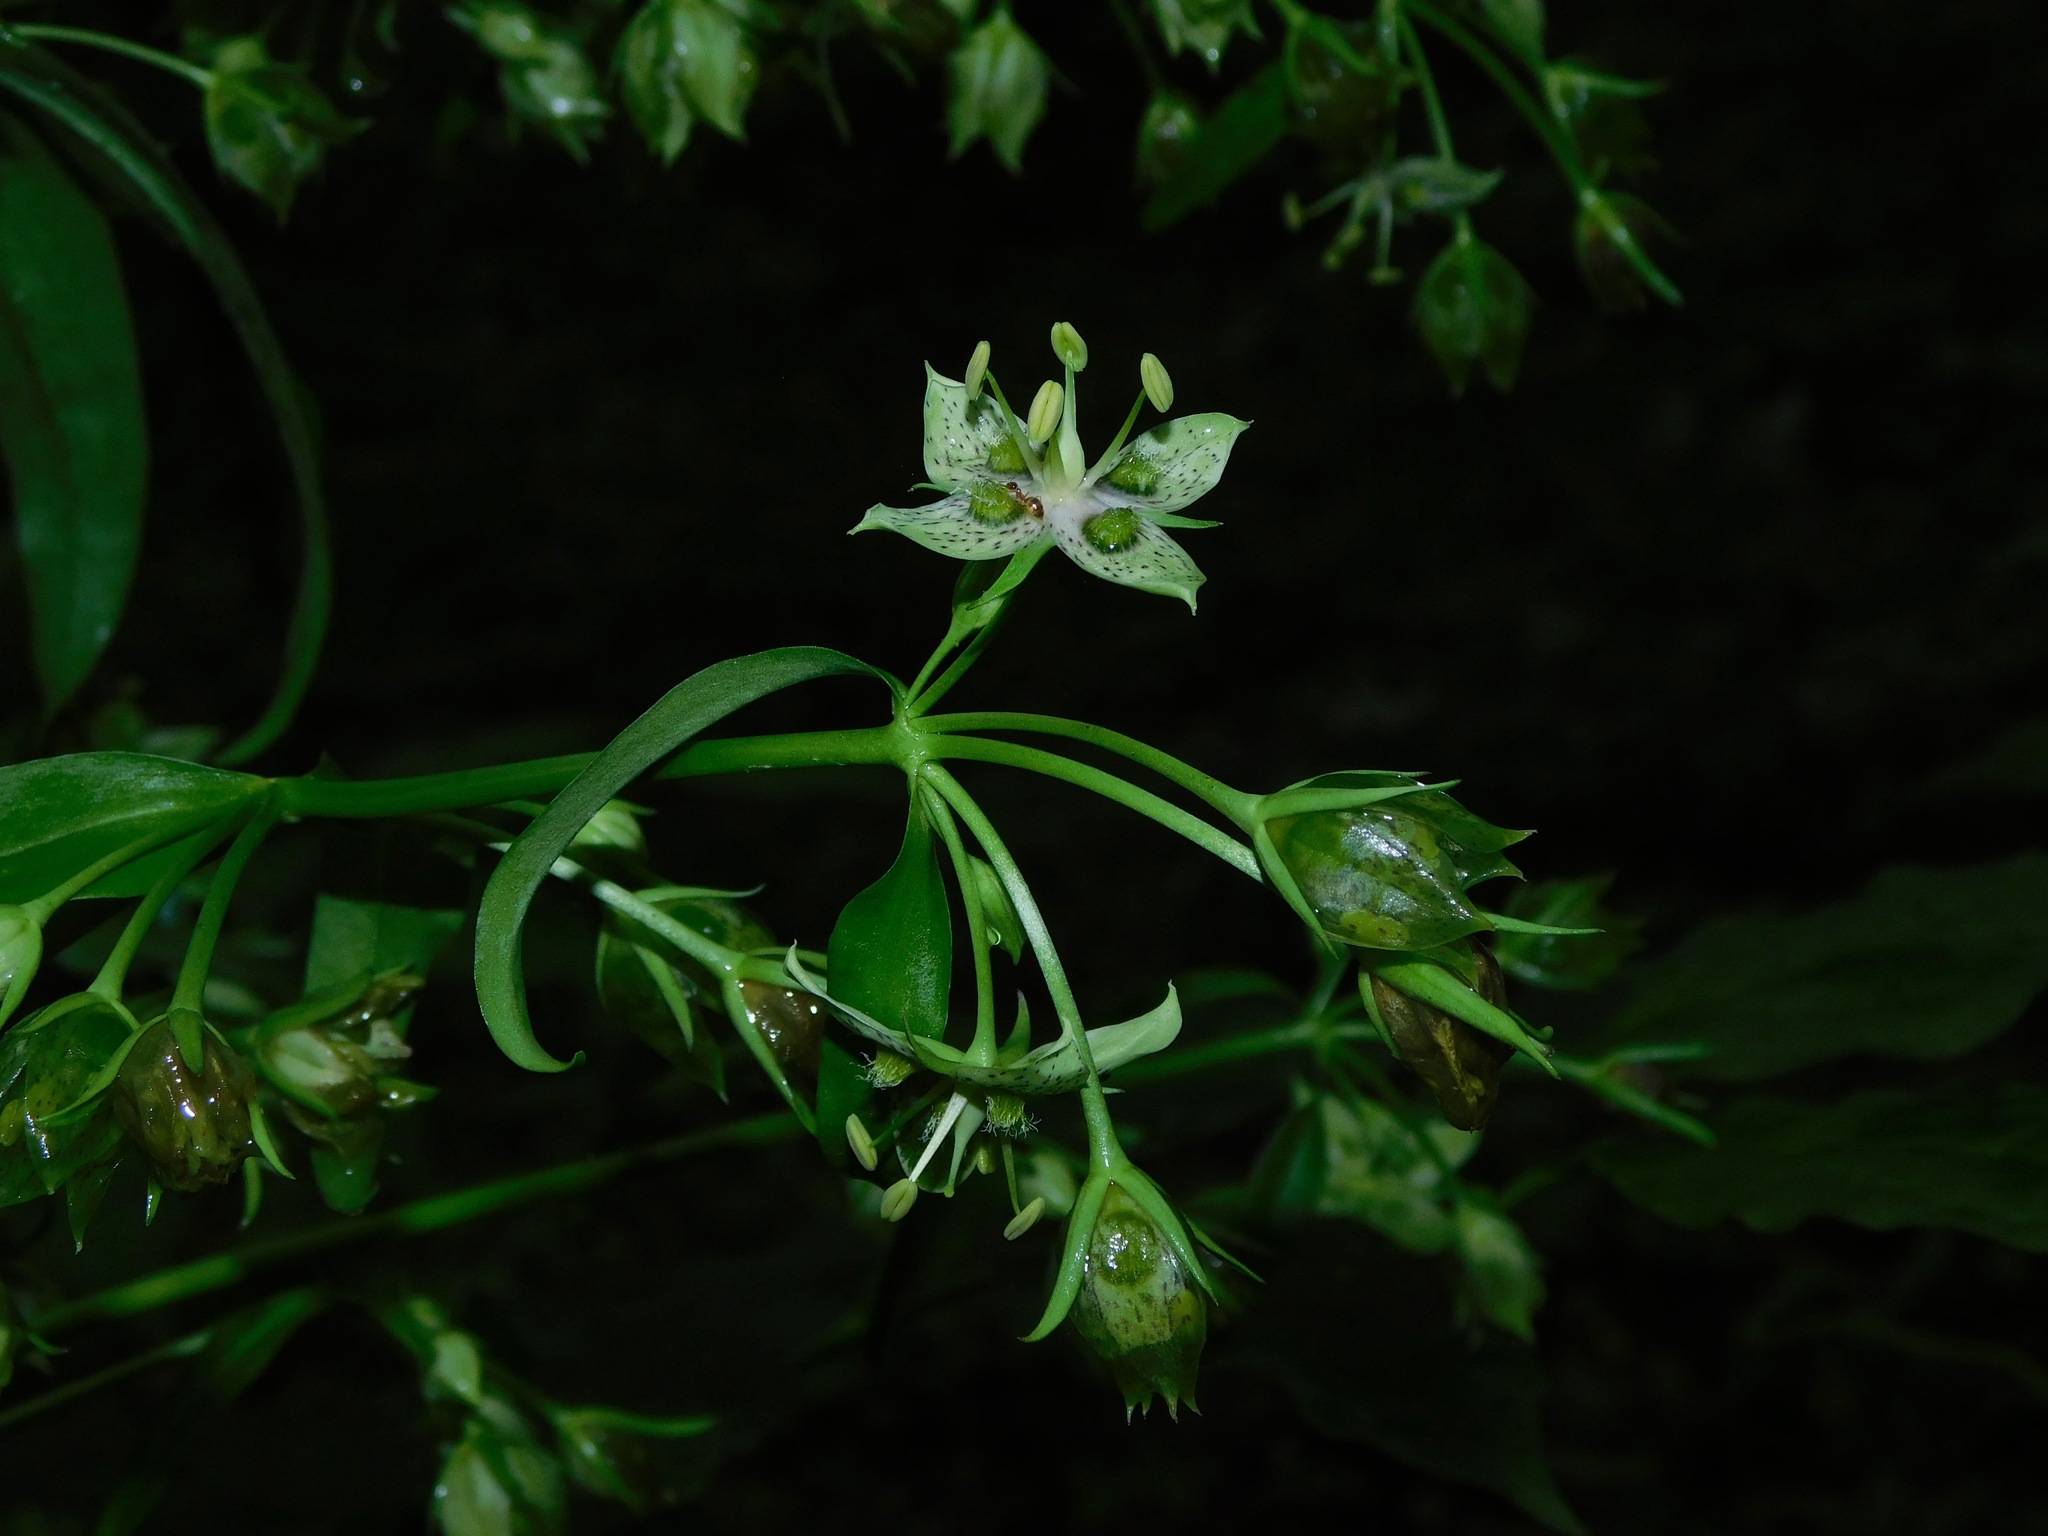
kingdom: Plantae
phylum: Tracheophyta
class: Magnoliopsida
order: Gentianales
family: Gentianaceae
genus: Frasera
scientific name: Frasera caroliniensis
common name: American columbo
